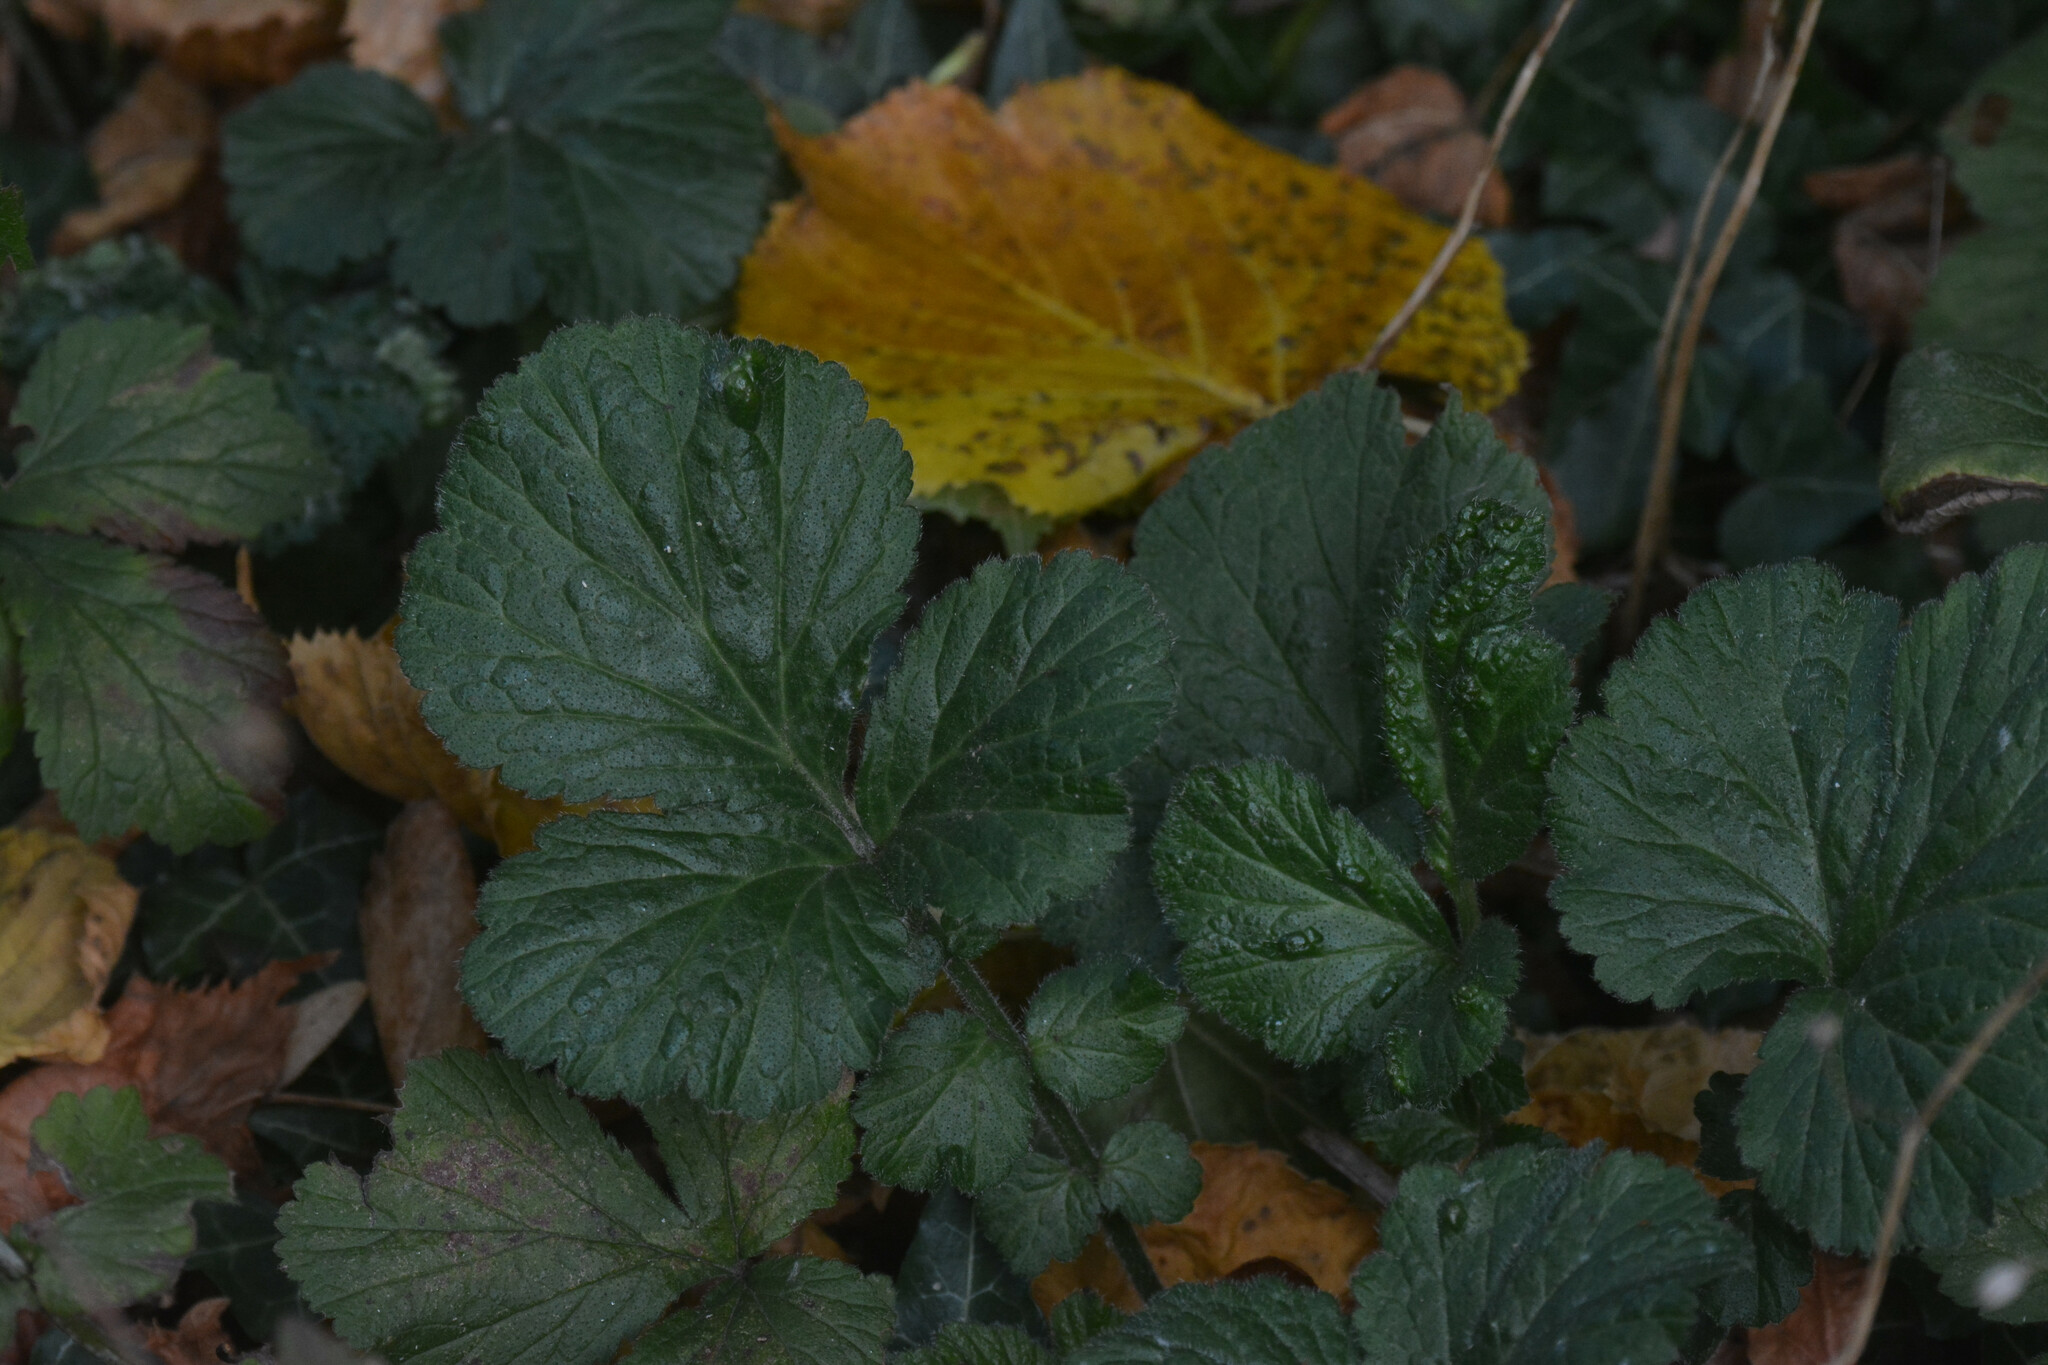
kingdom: Animalia
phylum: Arthropoda
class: Arachnida
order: Trombidiformes
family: Eriophyidae
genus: Cecidophyes
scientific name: Cecidophyes nudus
